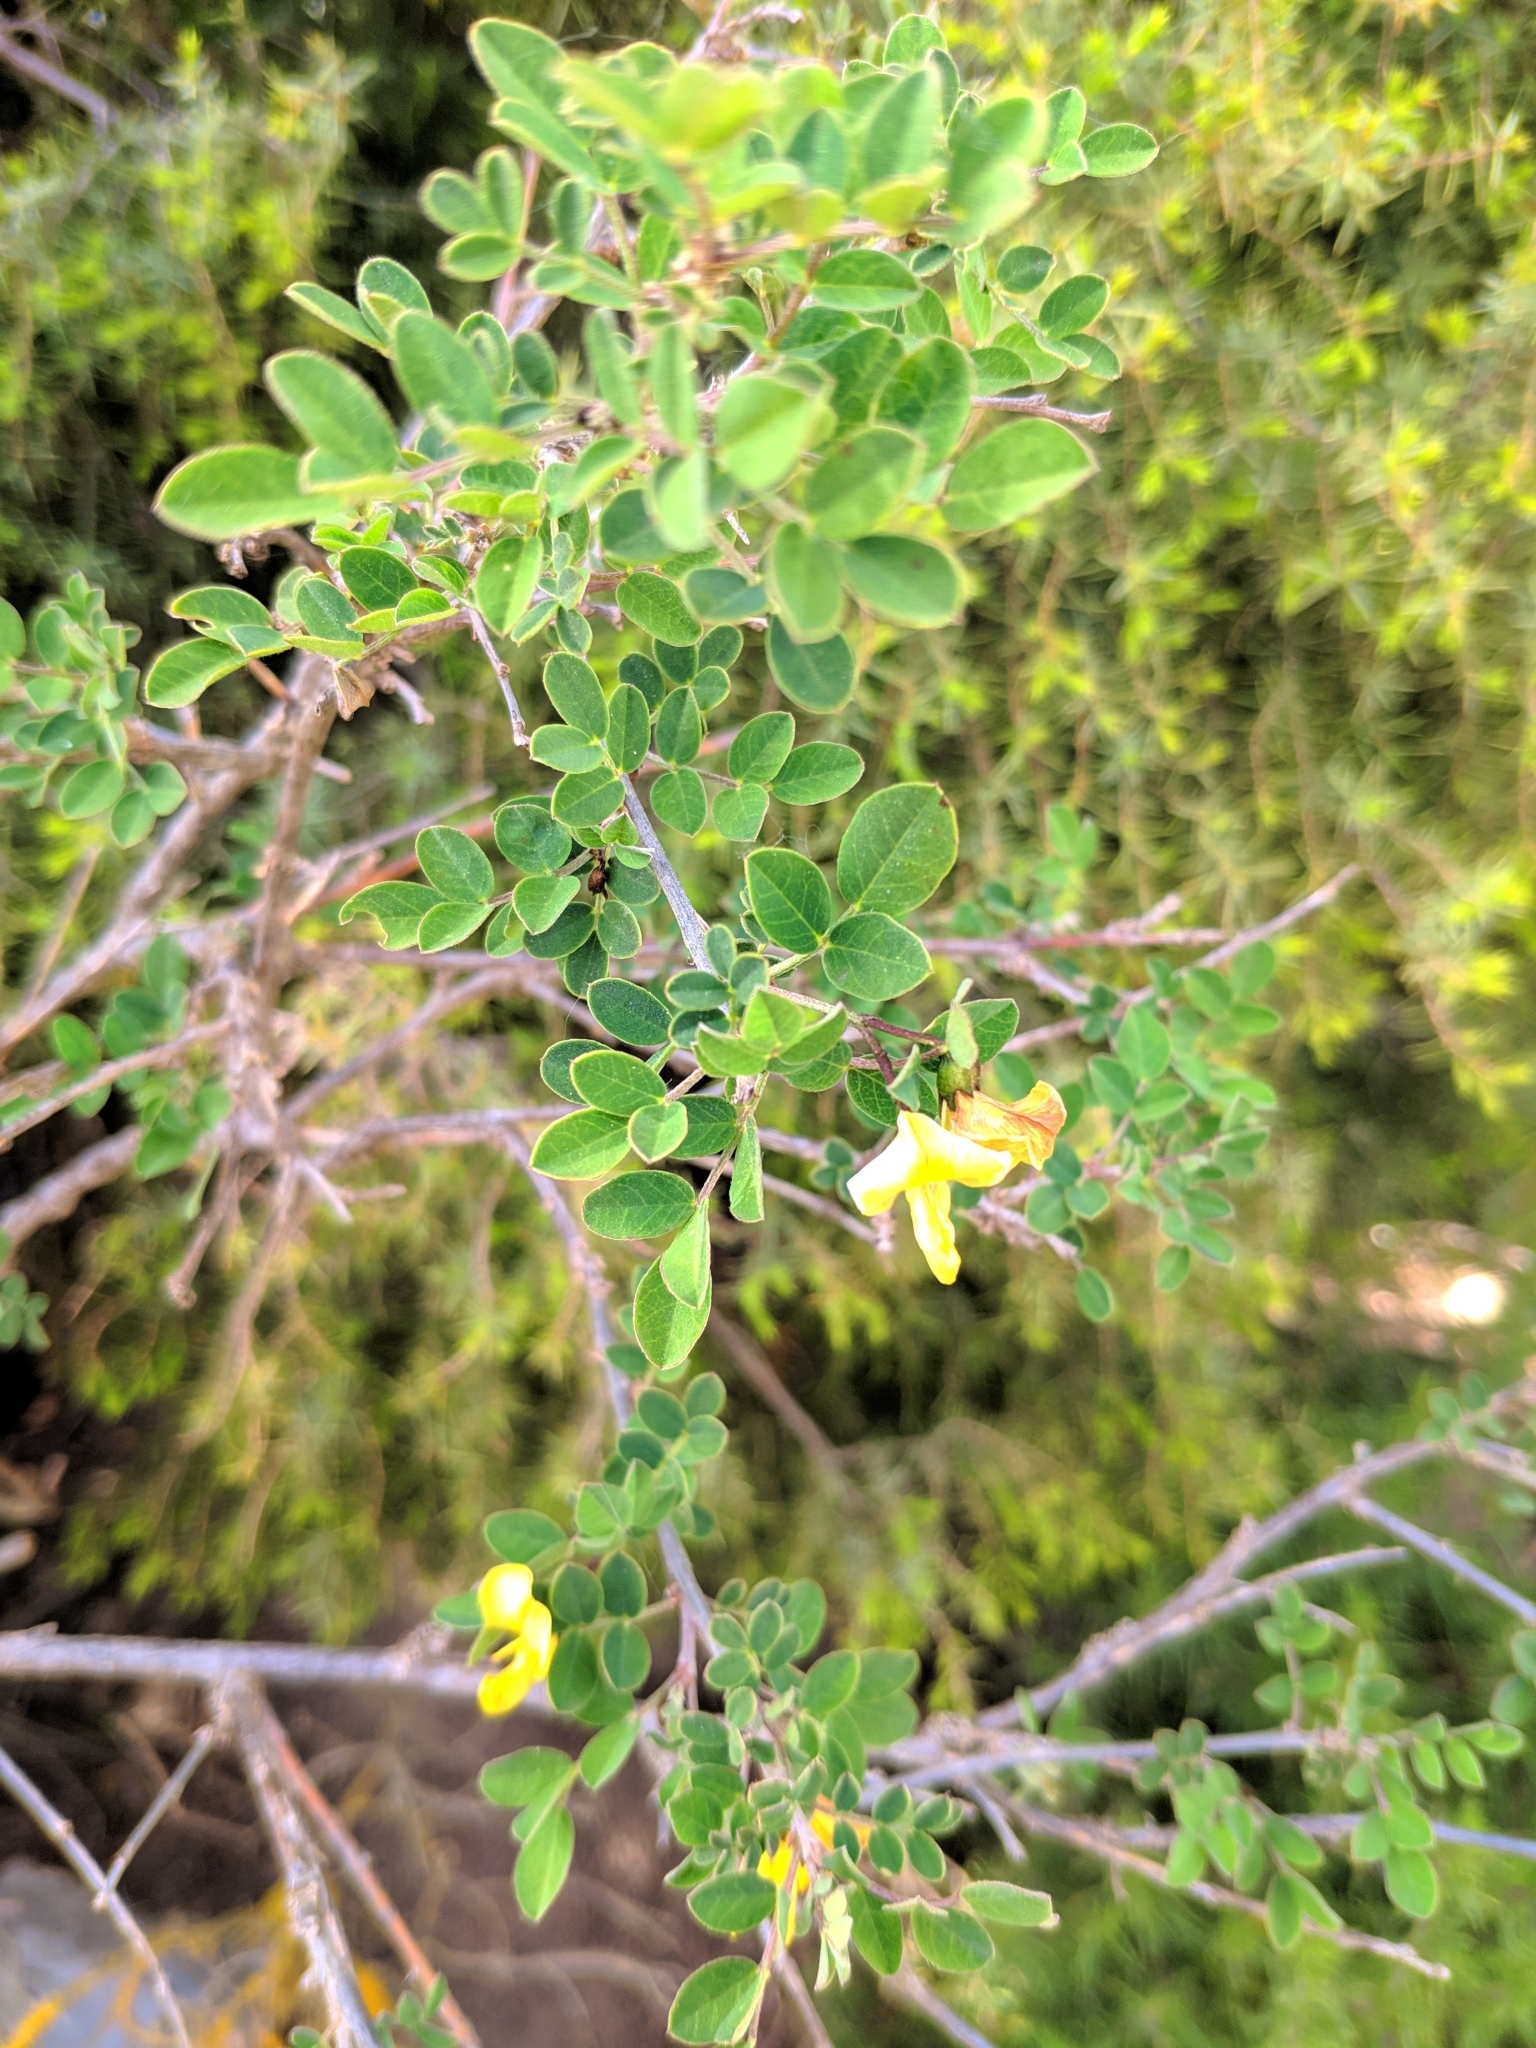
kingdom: Plantae
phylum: Tracheophyta
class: Magnoliopsida
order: Fabales
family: Fabaceae
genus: Colutea
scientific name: Colutea brevialata
